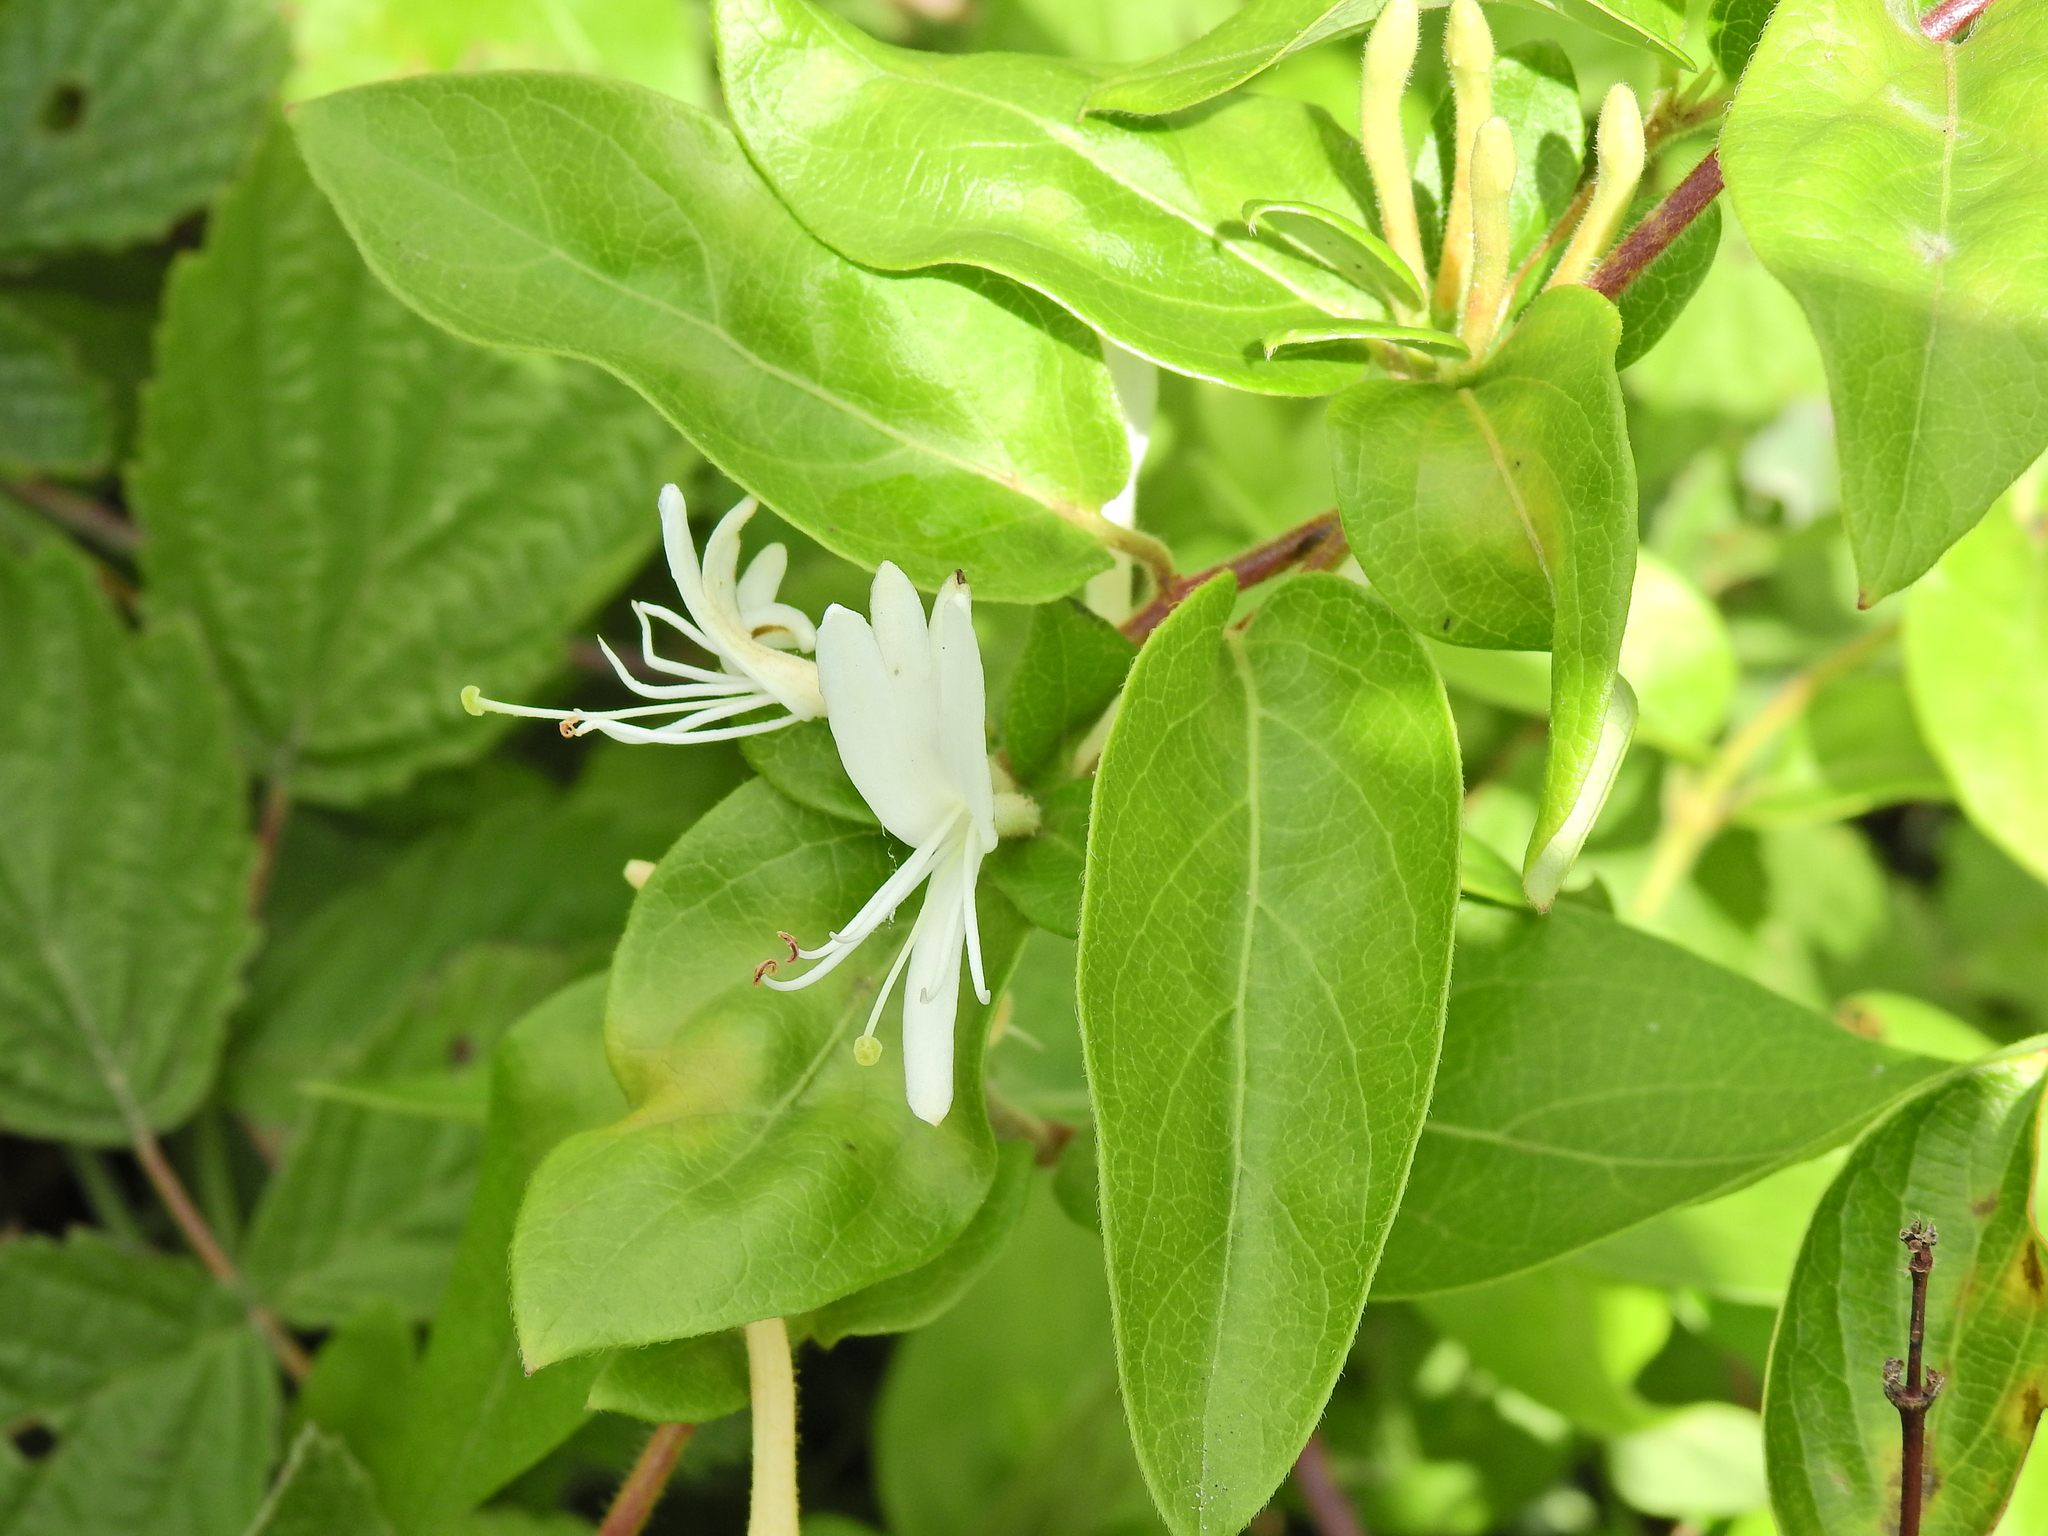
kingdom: Plantae
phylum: Tracheophyta
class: Magnoliopsida
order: Dipsacales
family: Caprifoliaceae
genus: Lonicera
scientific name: Lonicera japonica
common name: Japanese honeysuckle
